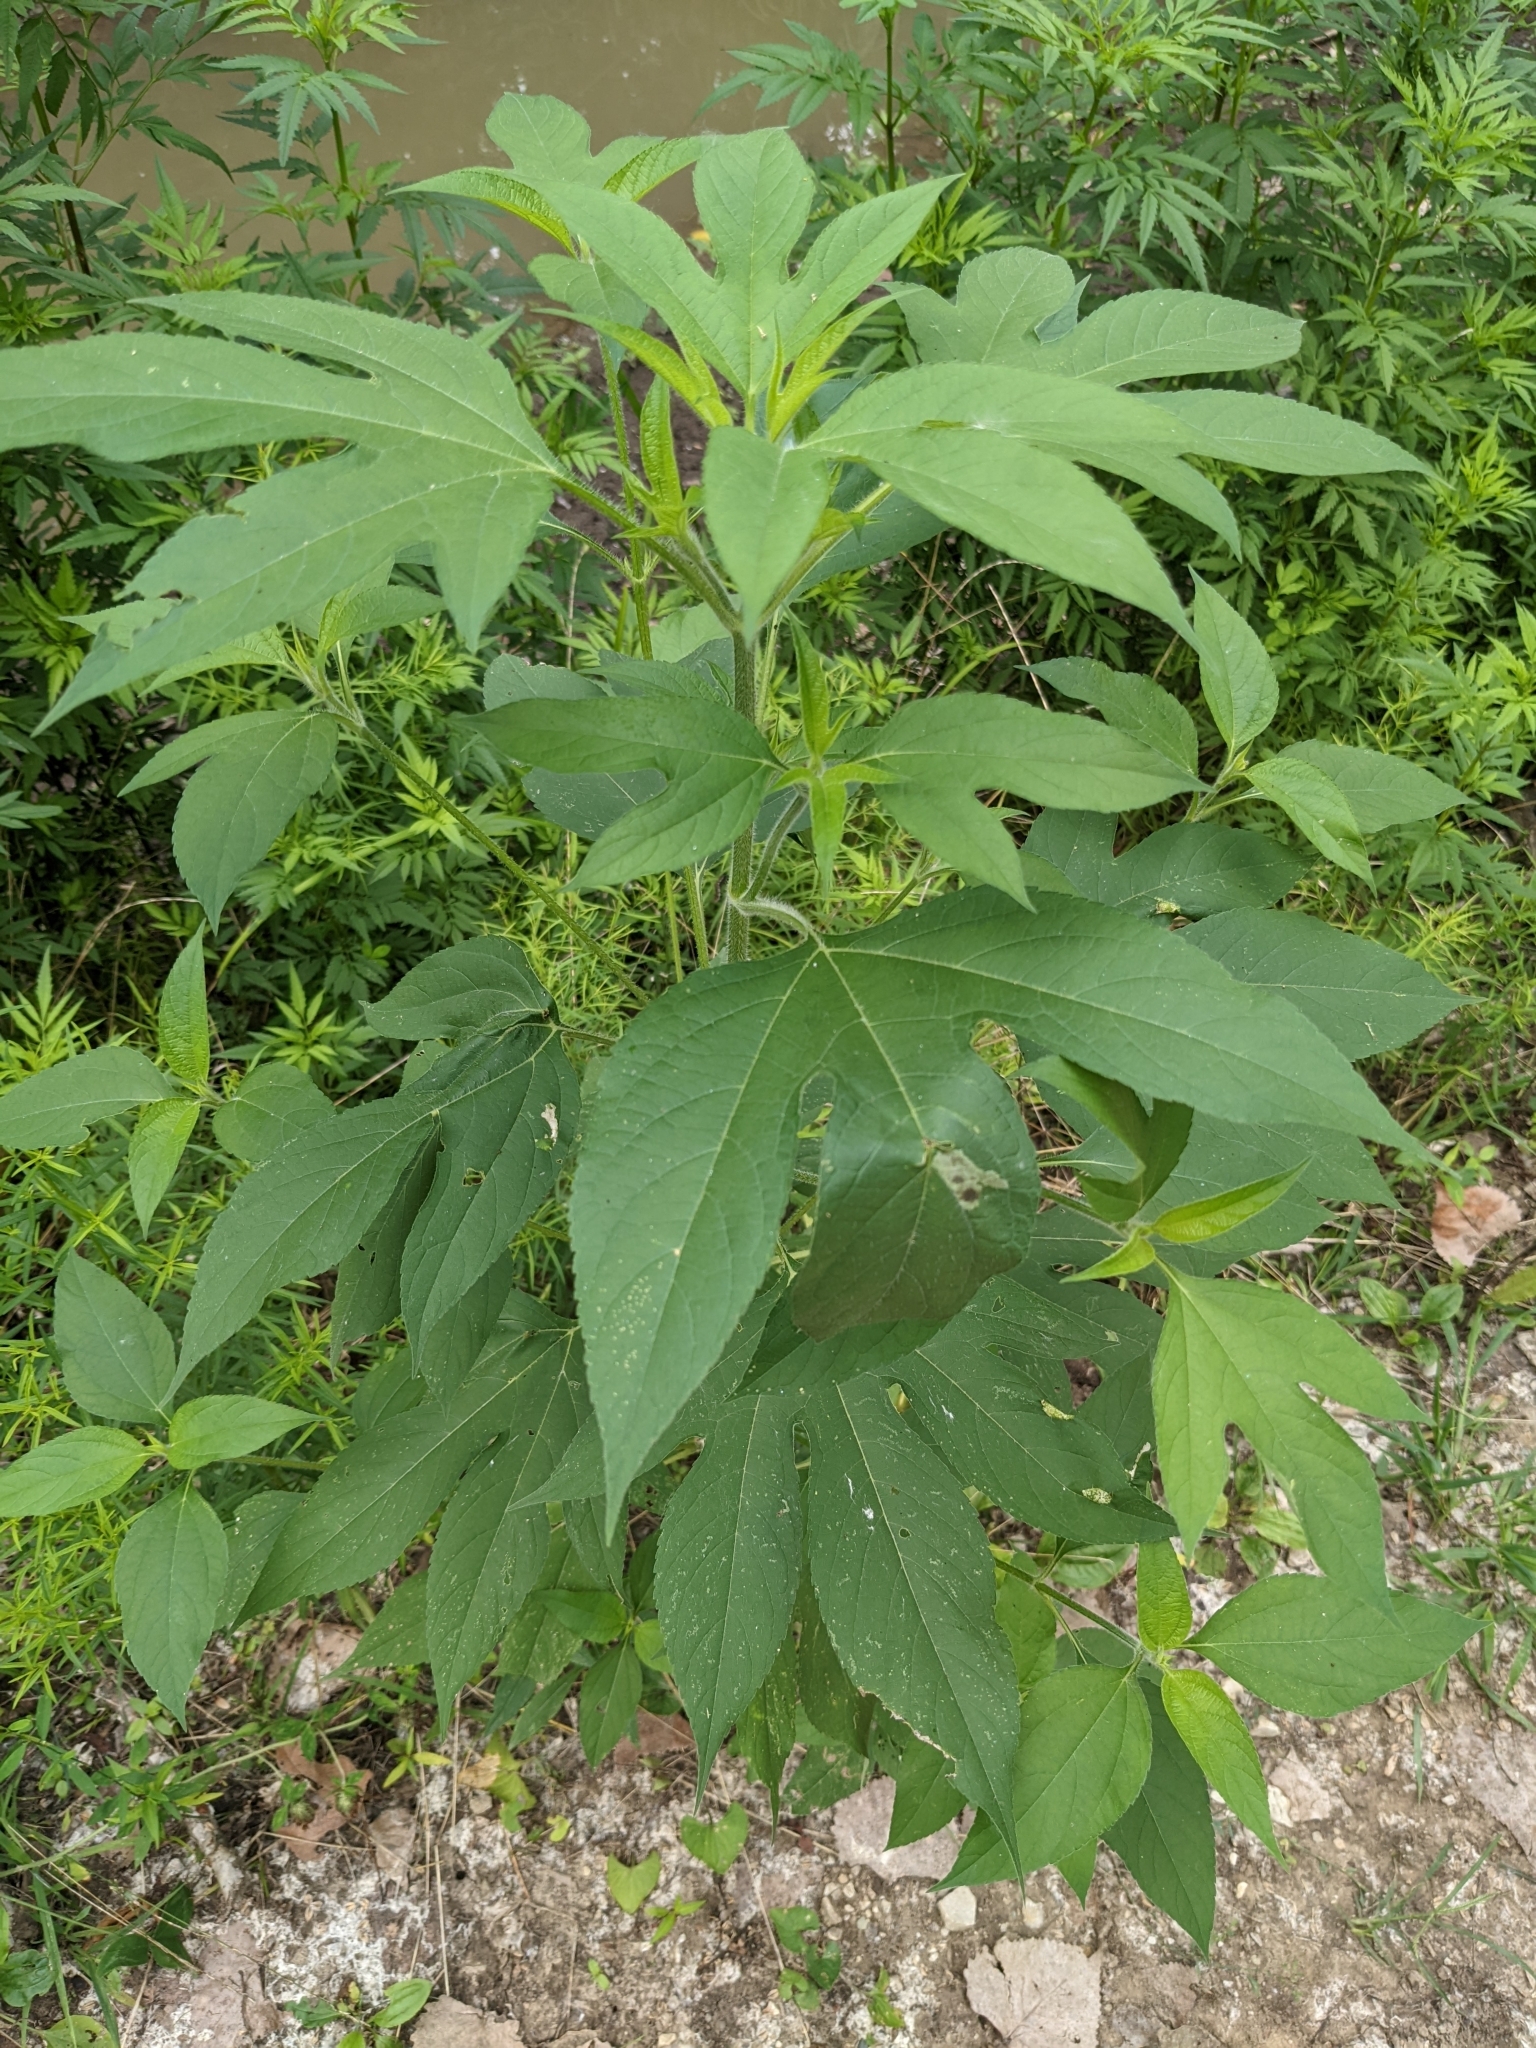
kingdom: Plantae
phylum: Tracheophyta
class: Magnoliopsida
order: Asterales
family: Asteraceae
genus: Ambrosia
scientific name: Ambrosia trifida
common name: Giant ragweed
